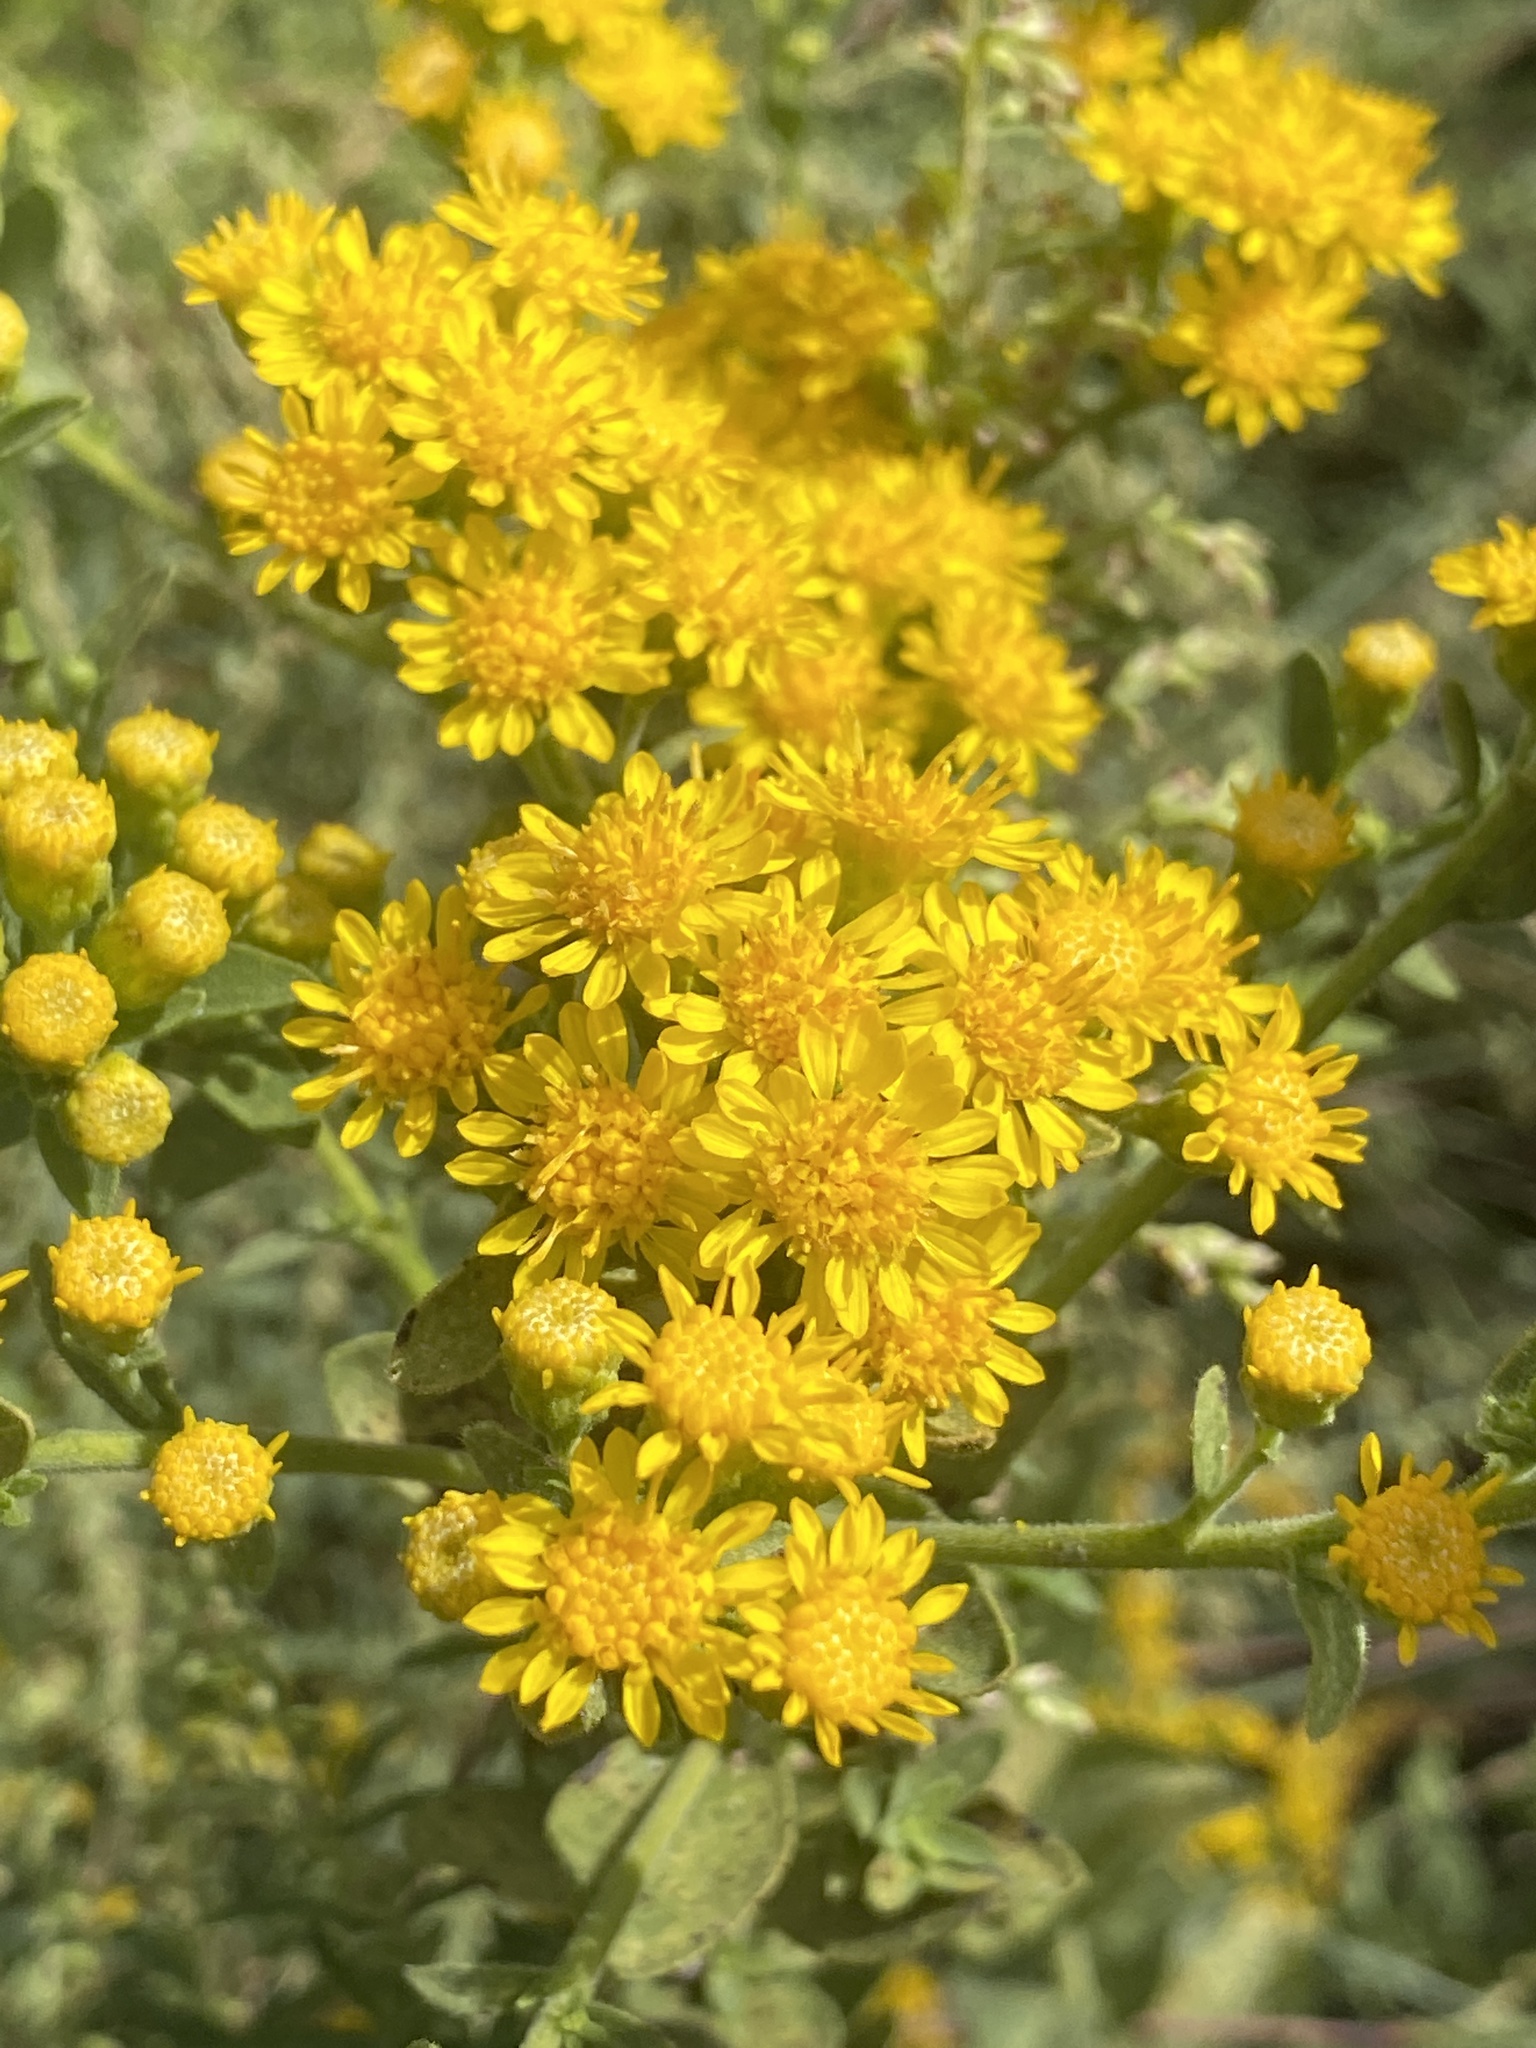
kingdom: Plantae
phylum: Tracheophyta
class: Magnoliopsida
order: Asterales
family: Asteraceae
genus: Solidago
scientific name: Solidago rigida
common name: Rigid goldenrod
